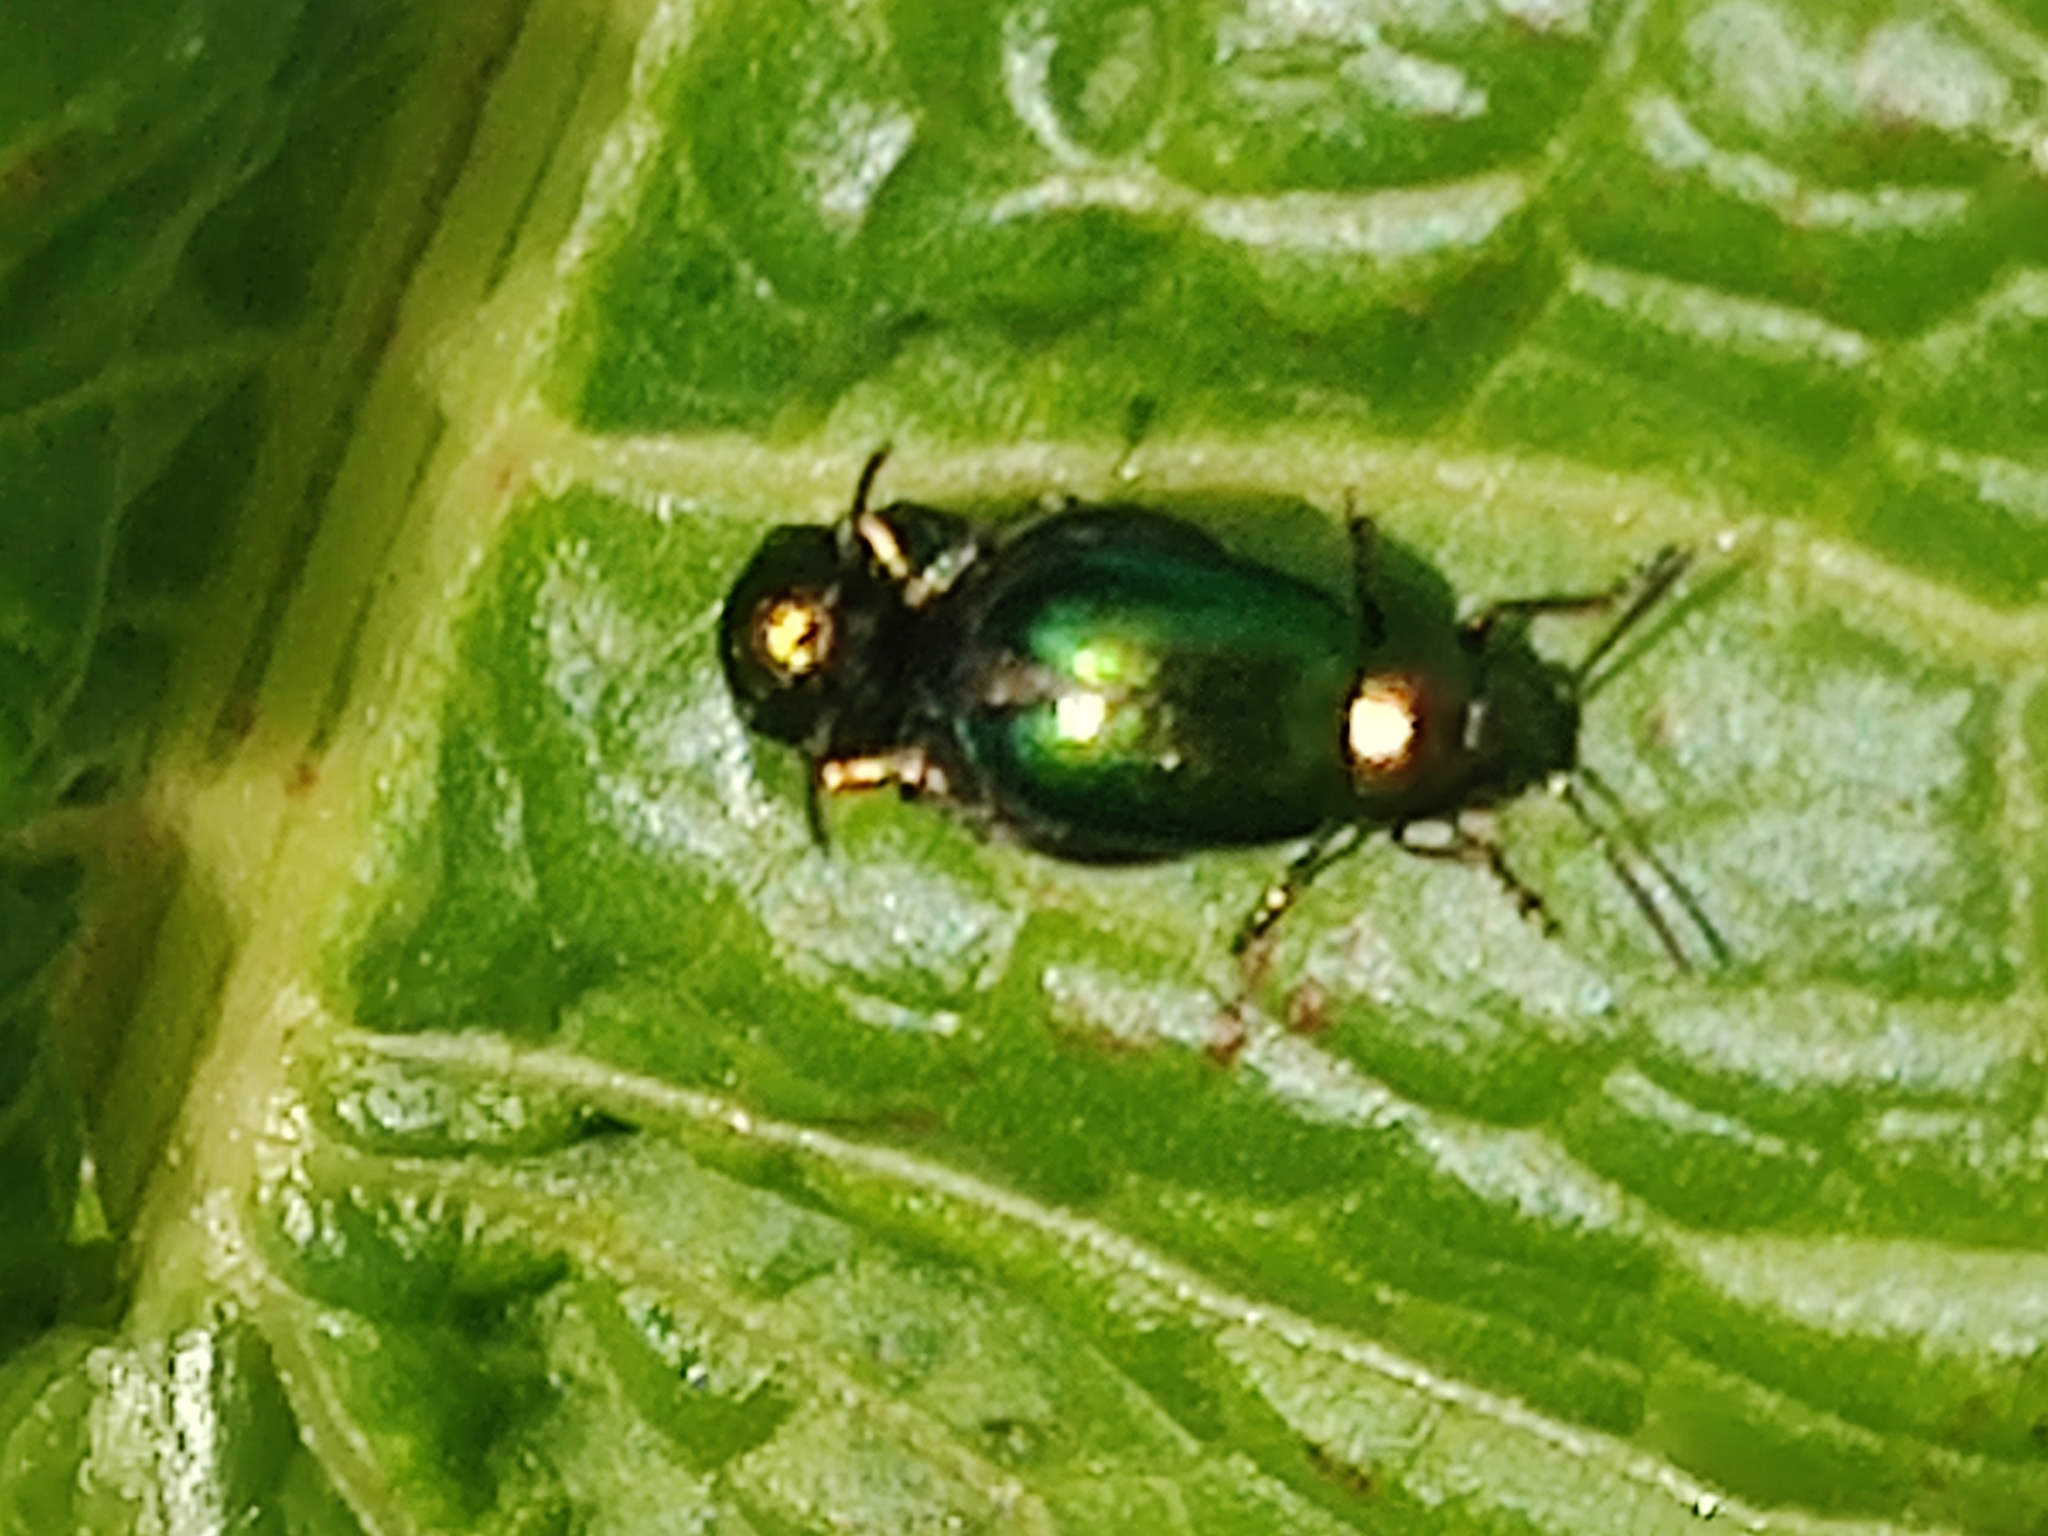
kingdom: Animalia
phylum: Arthropoda
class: Insecta
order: Coleoptera
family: Chrysomelidae
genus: Gastrophysa
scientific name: Gastrophysa viridula
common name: Green dock beetle
